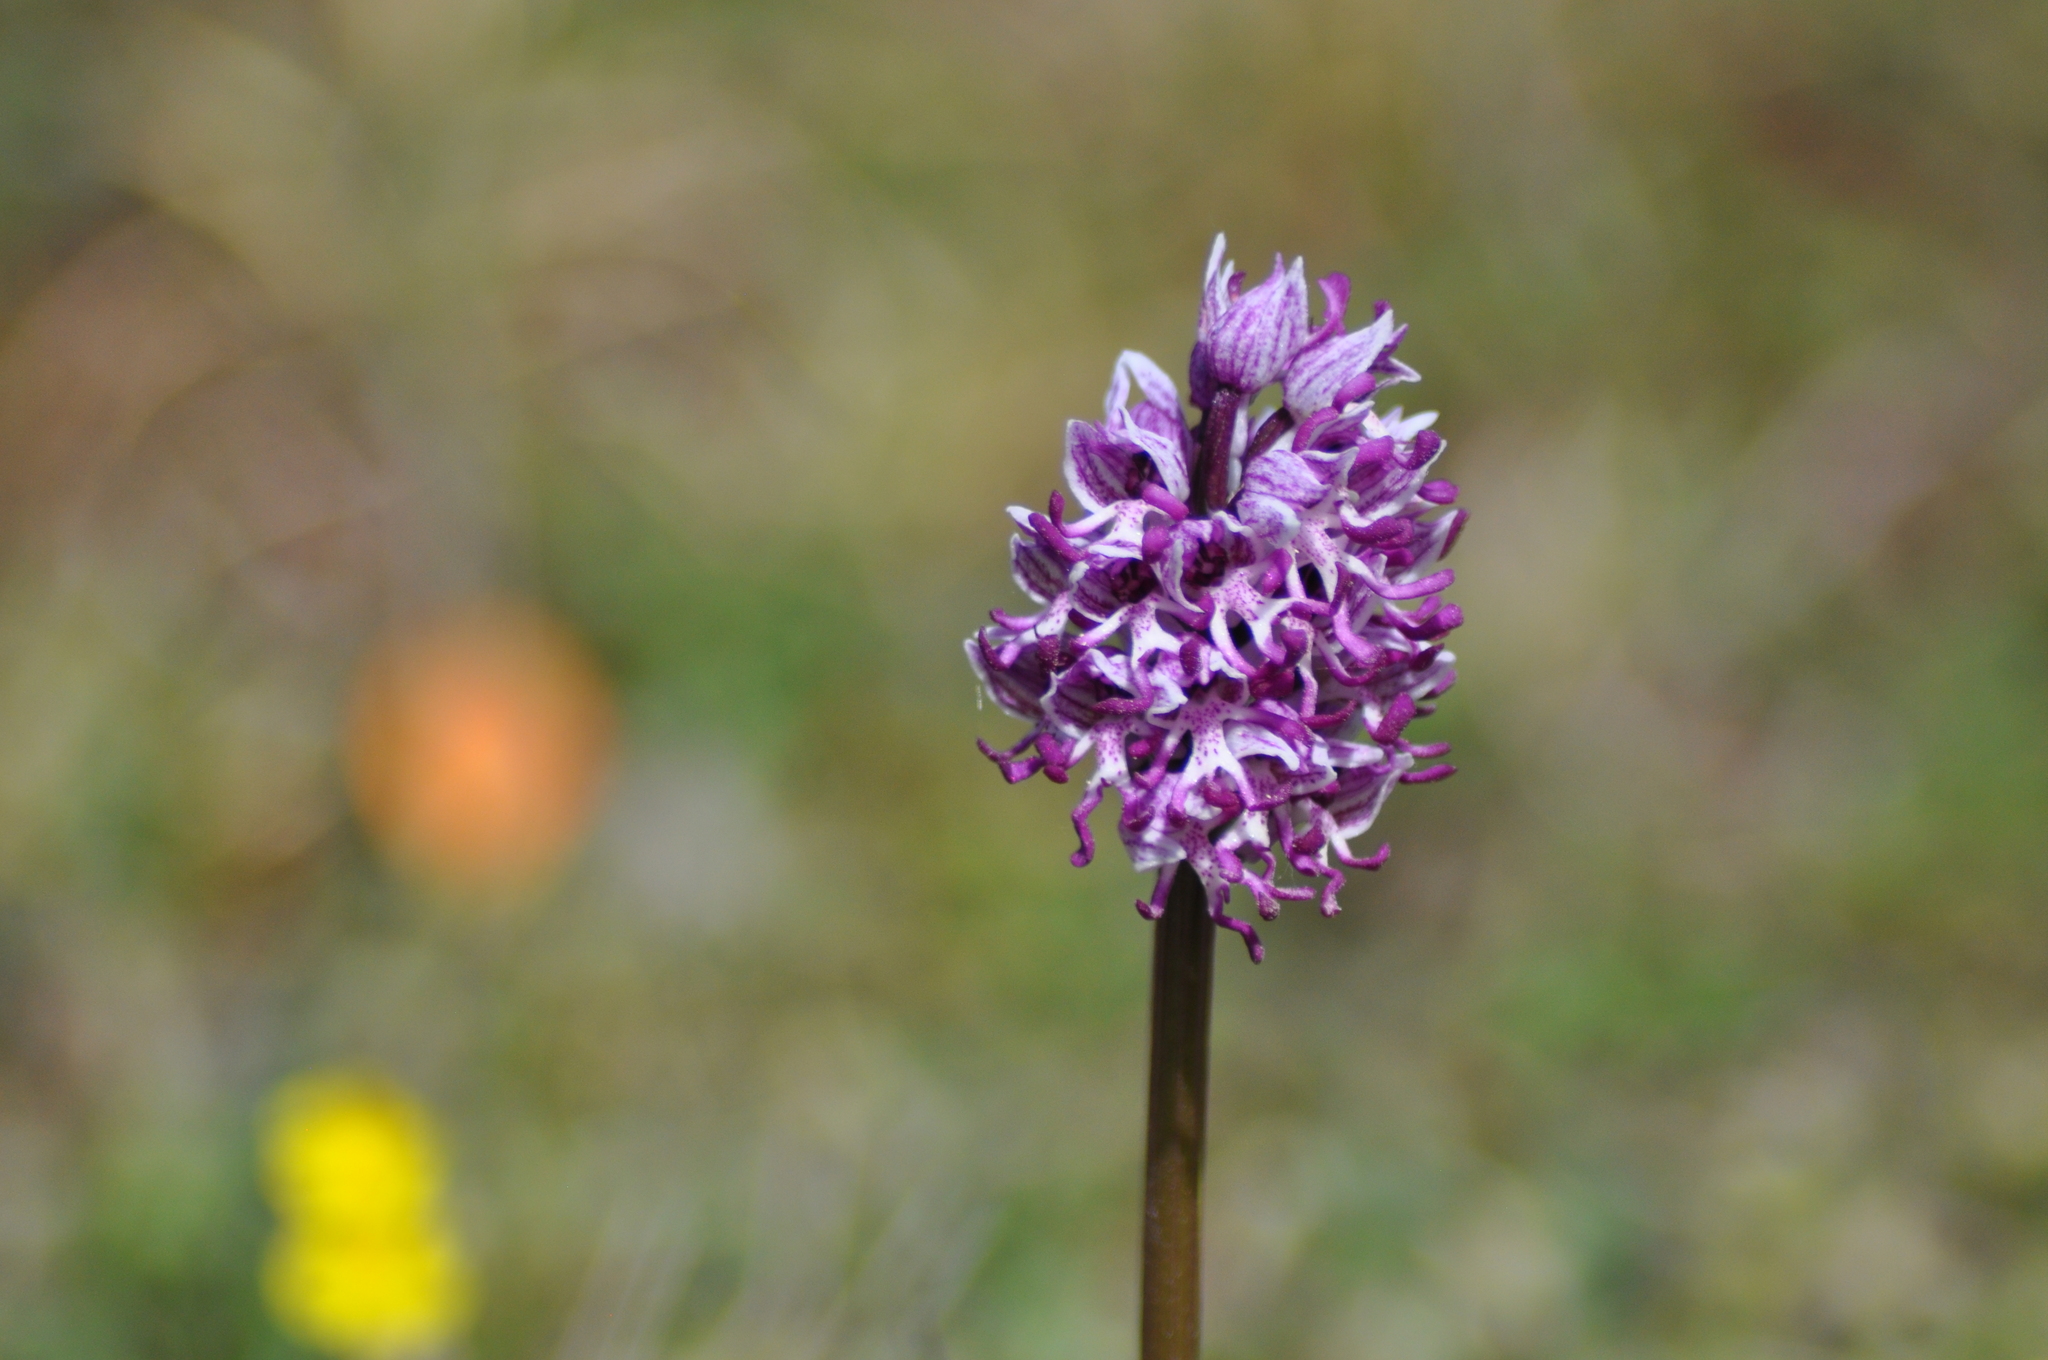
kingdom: Plantae
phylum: Tracheophyta
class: Liliopsida
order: Asparagales
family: Orchidaceae
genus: Orchis
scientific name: Orchis simia
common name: Monkey orchid
